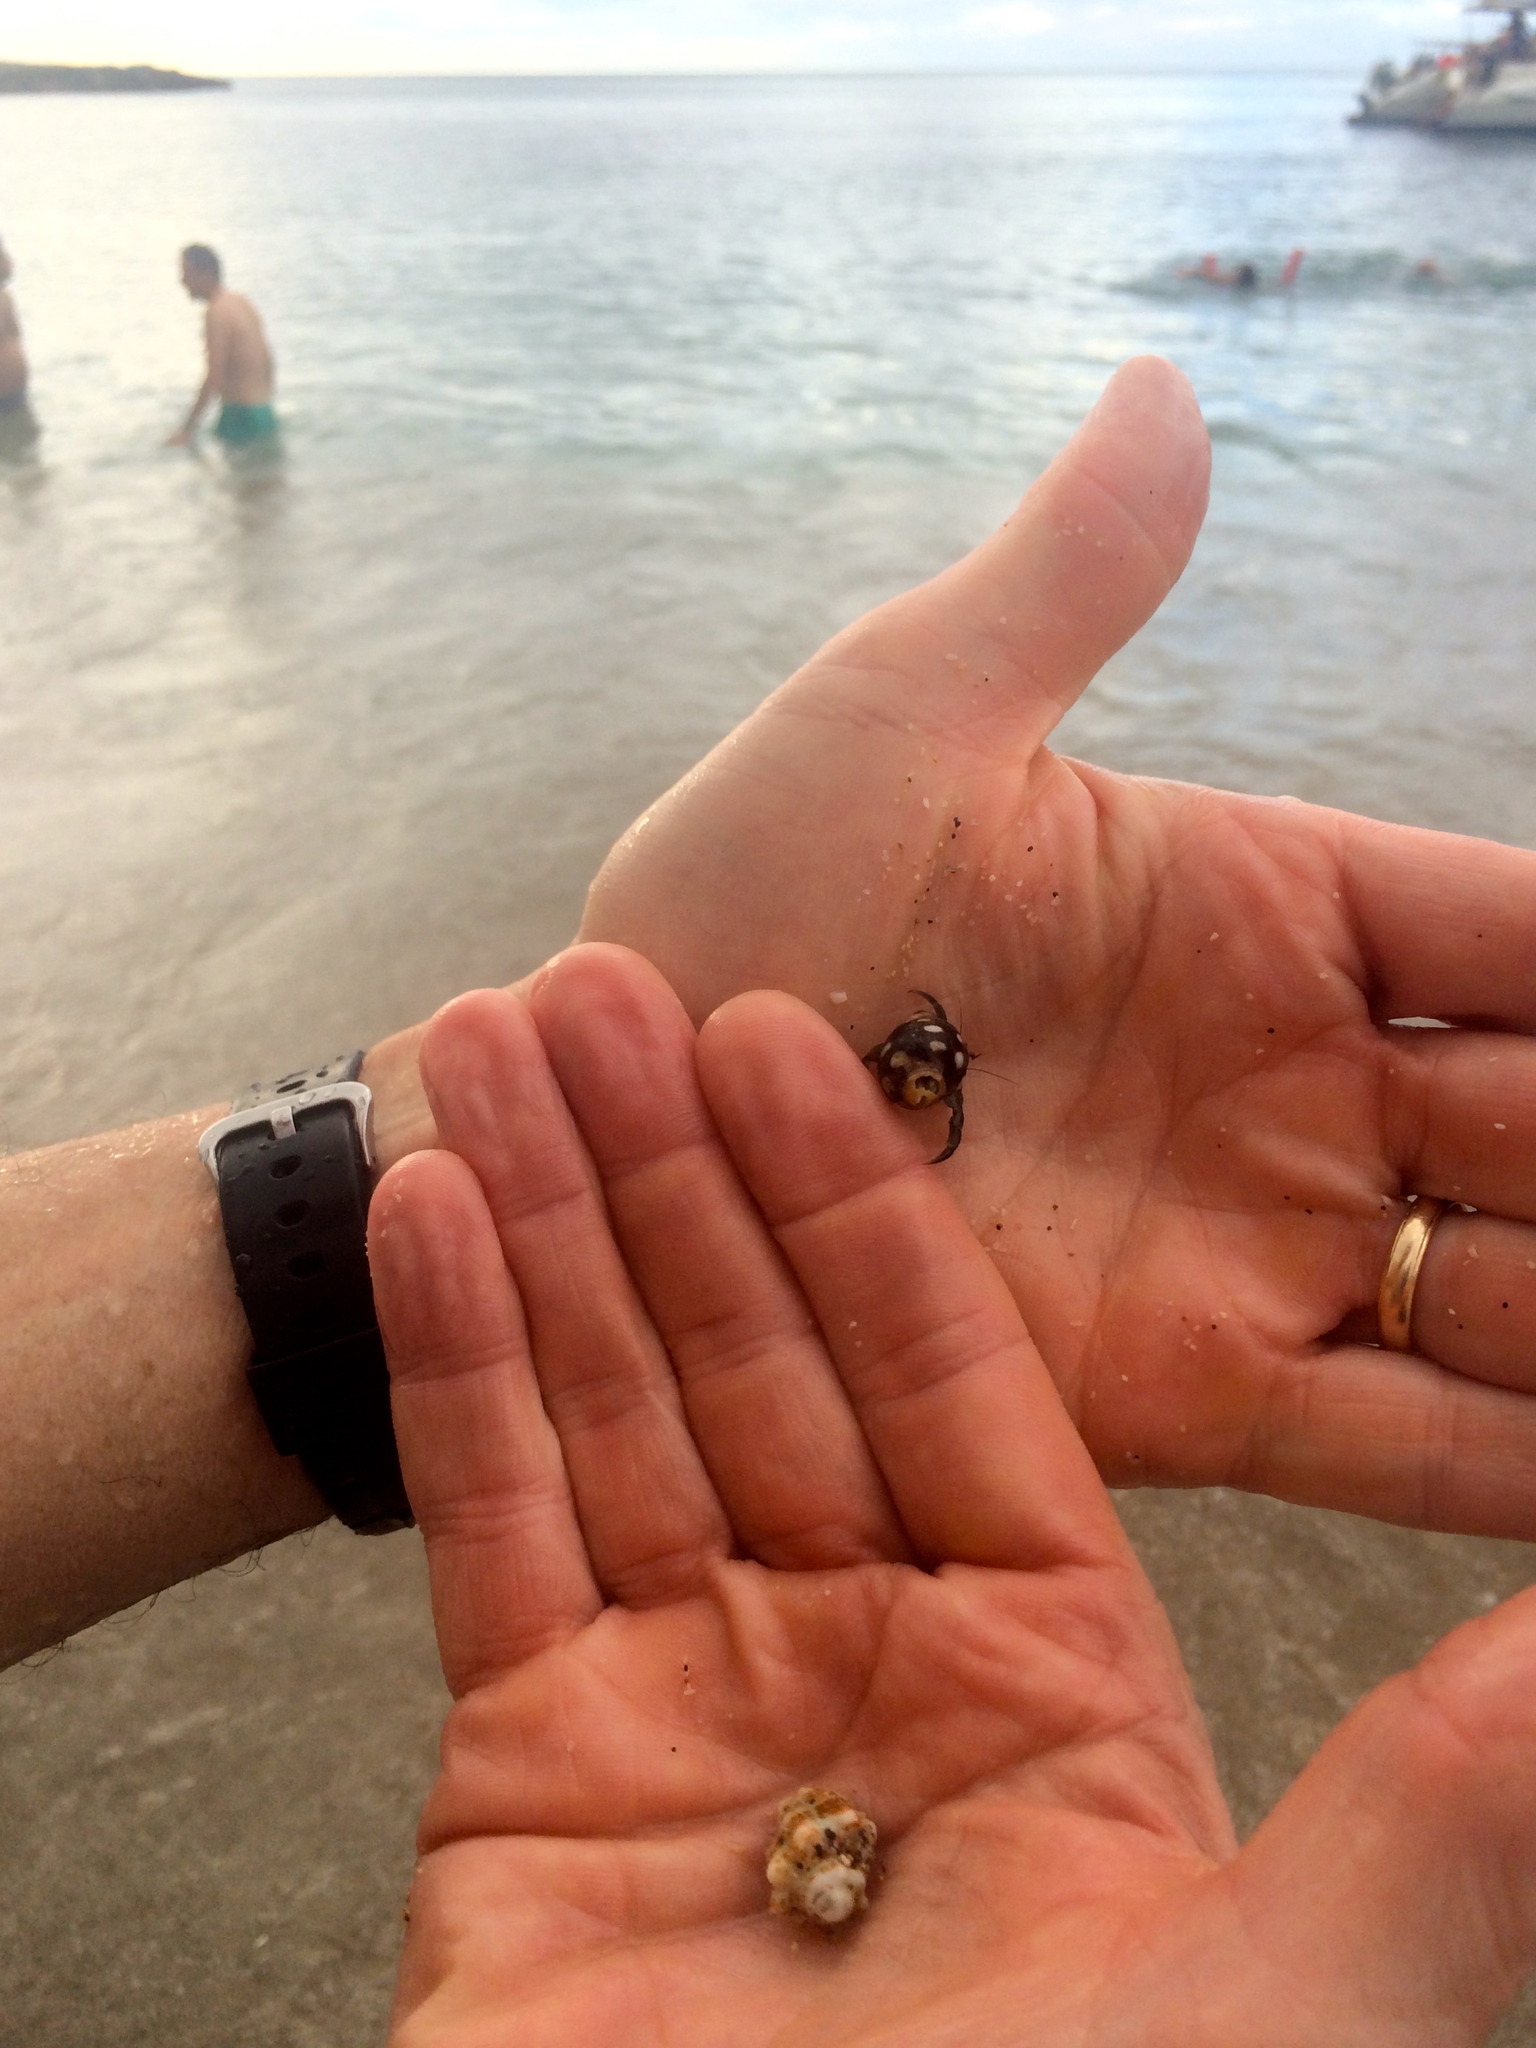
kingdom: Animalia
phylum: Arthropoda
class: Malacostraca
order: Decapoda
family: Coenobitidae
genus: Coenobita
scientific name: Coenobita compressus
